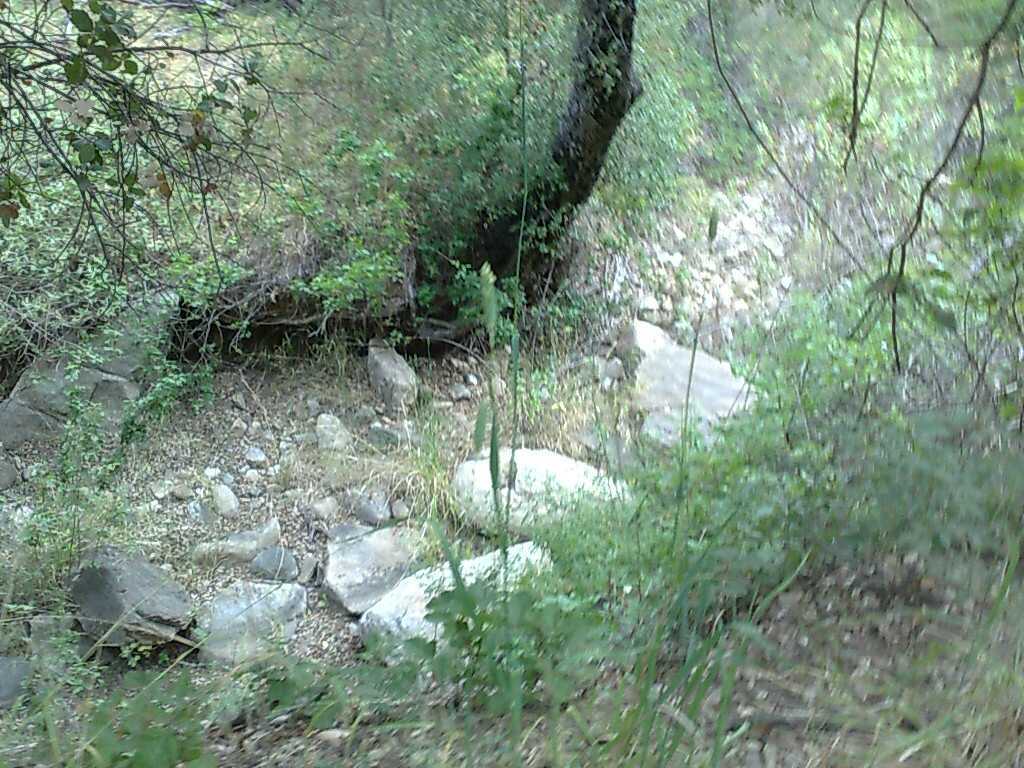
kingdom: Plantae
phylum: Tracheophyta
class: Magnoliopsida
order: Fagales
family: Fagaceae
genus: Quercus
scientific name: Quercus agrifolia
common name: California live oak
